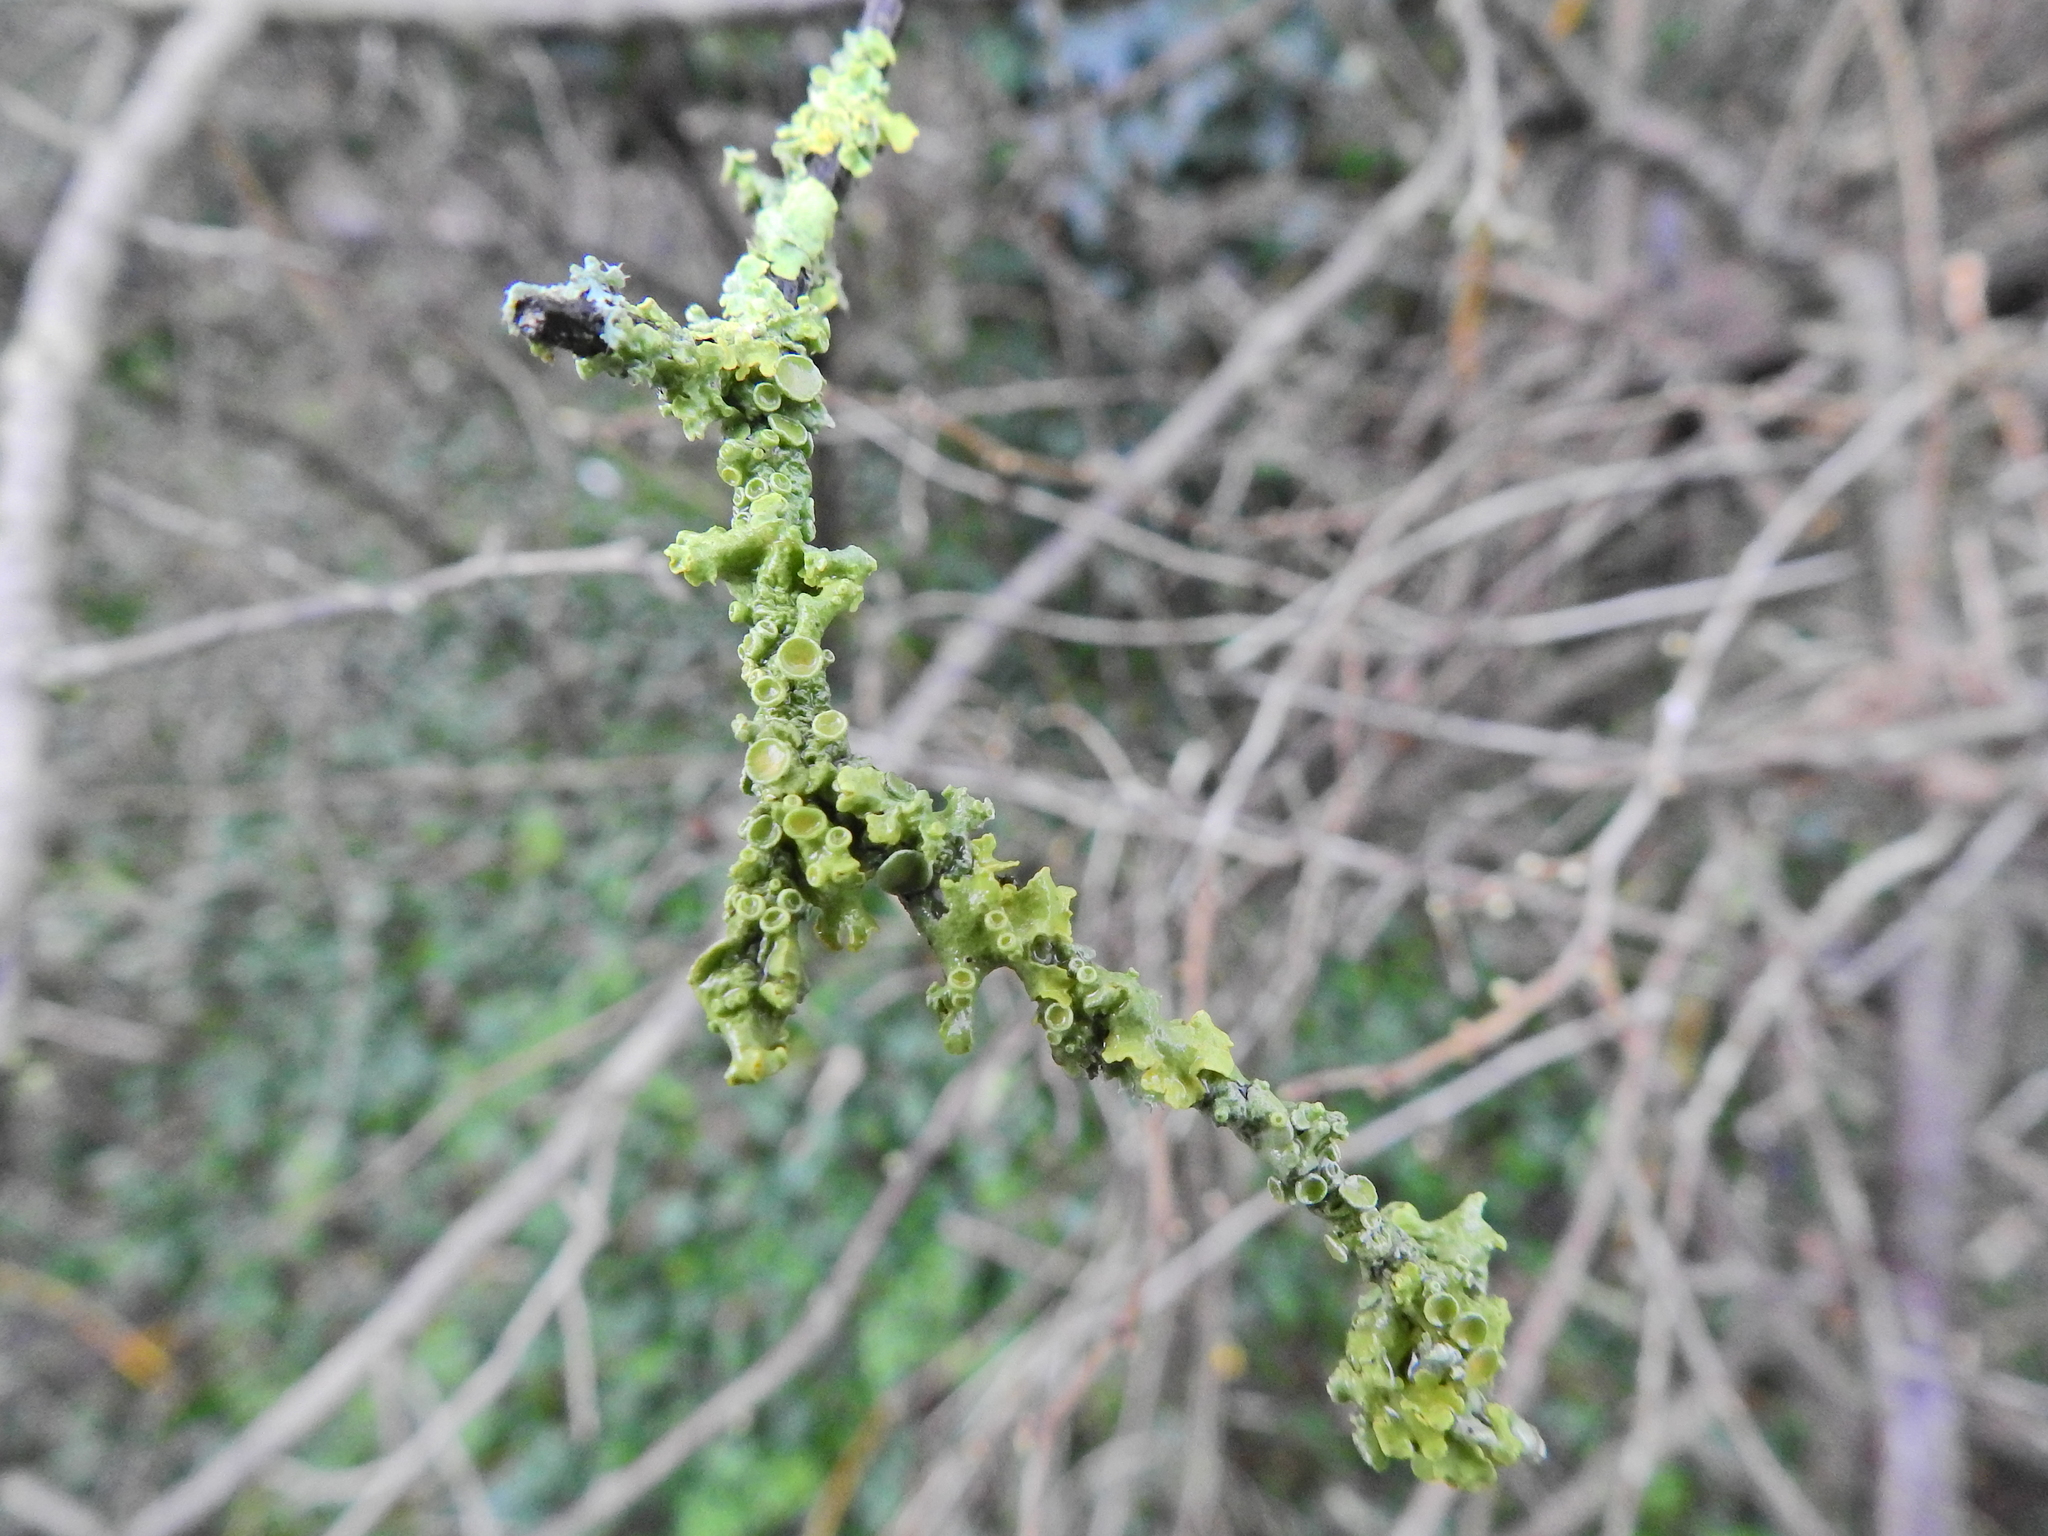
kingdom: Fungi
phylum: Ascomycota
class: Lecanoromycetes
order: Teloschistales
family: Teloschistaceae
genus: Xanthoria
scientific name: Xanthoria parietina
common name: Common orange lichen
